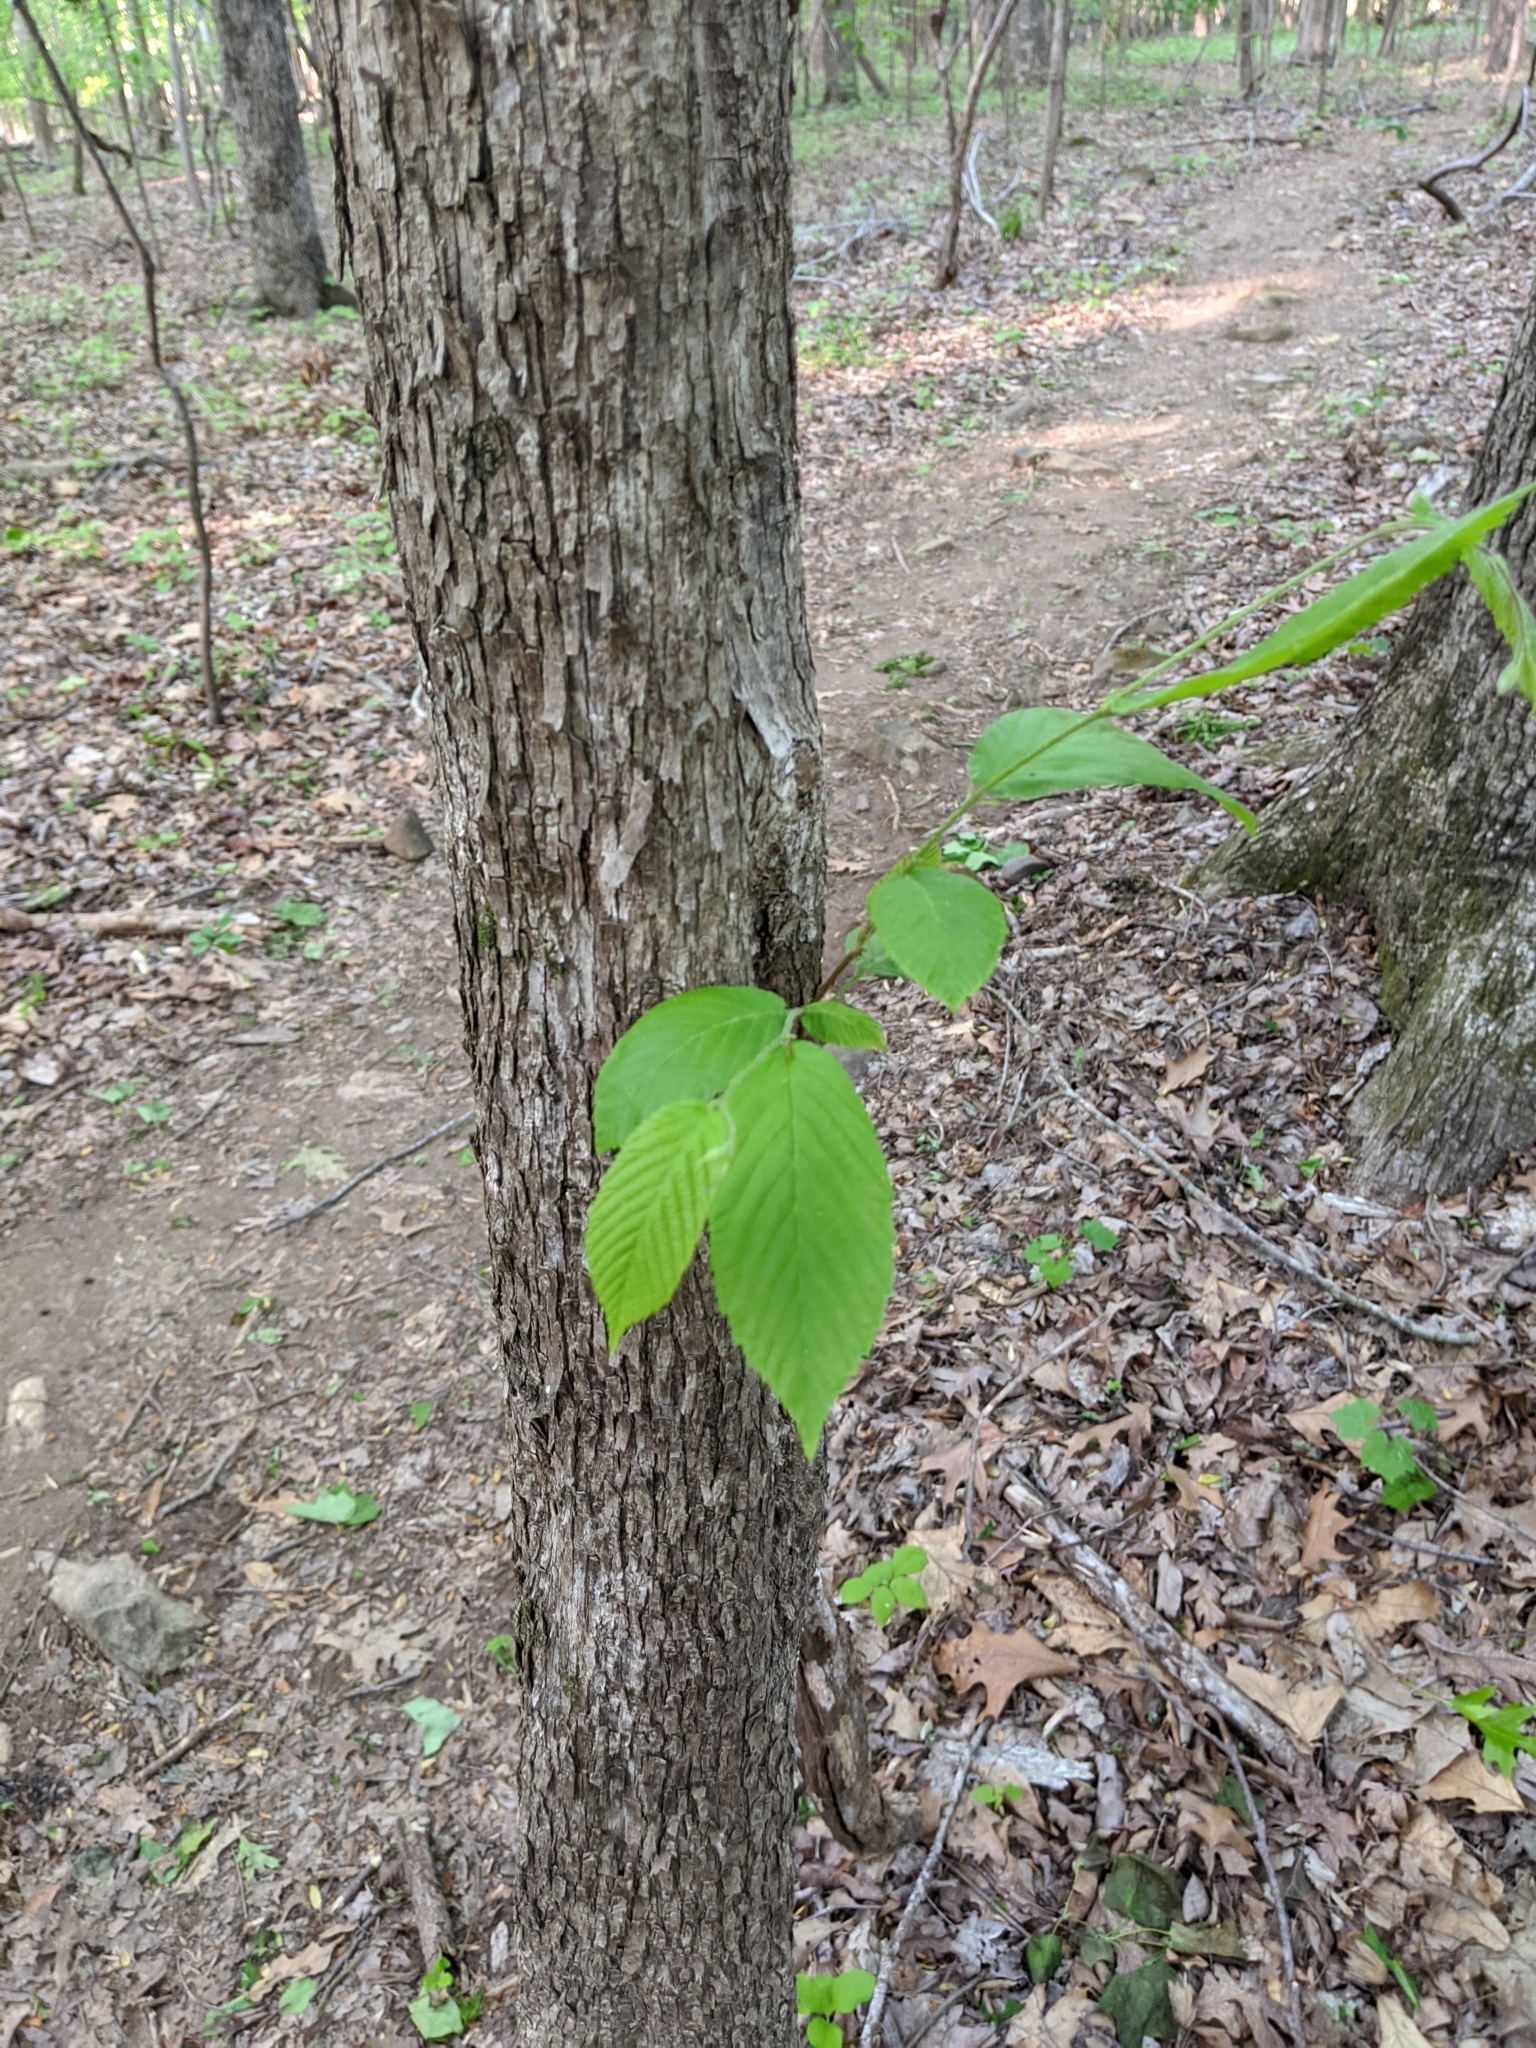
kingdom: Plantae
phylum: Tracheophyta
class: Magnoliopsida
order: Fagales
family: Betulaceae
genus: Ostrya
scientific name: Ostrya virginiana
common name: Ironwood
